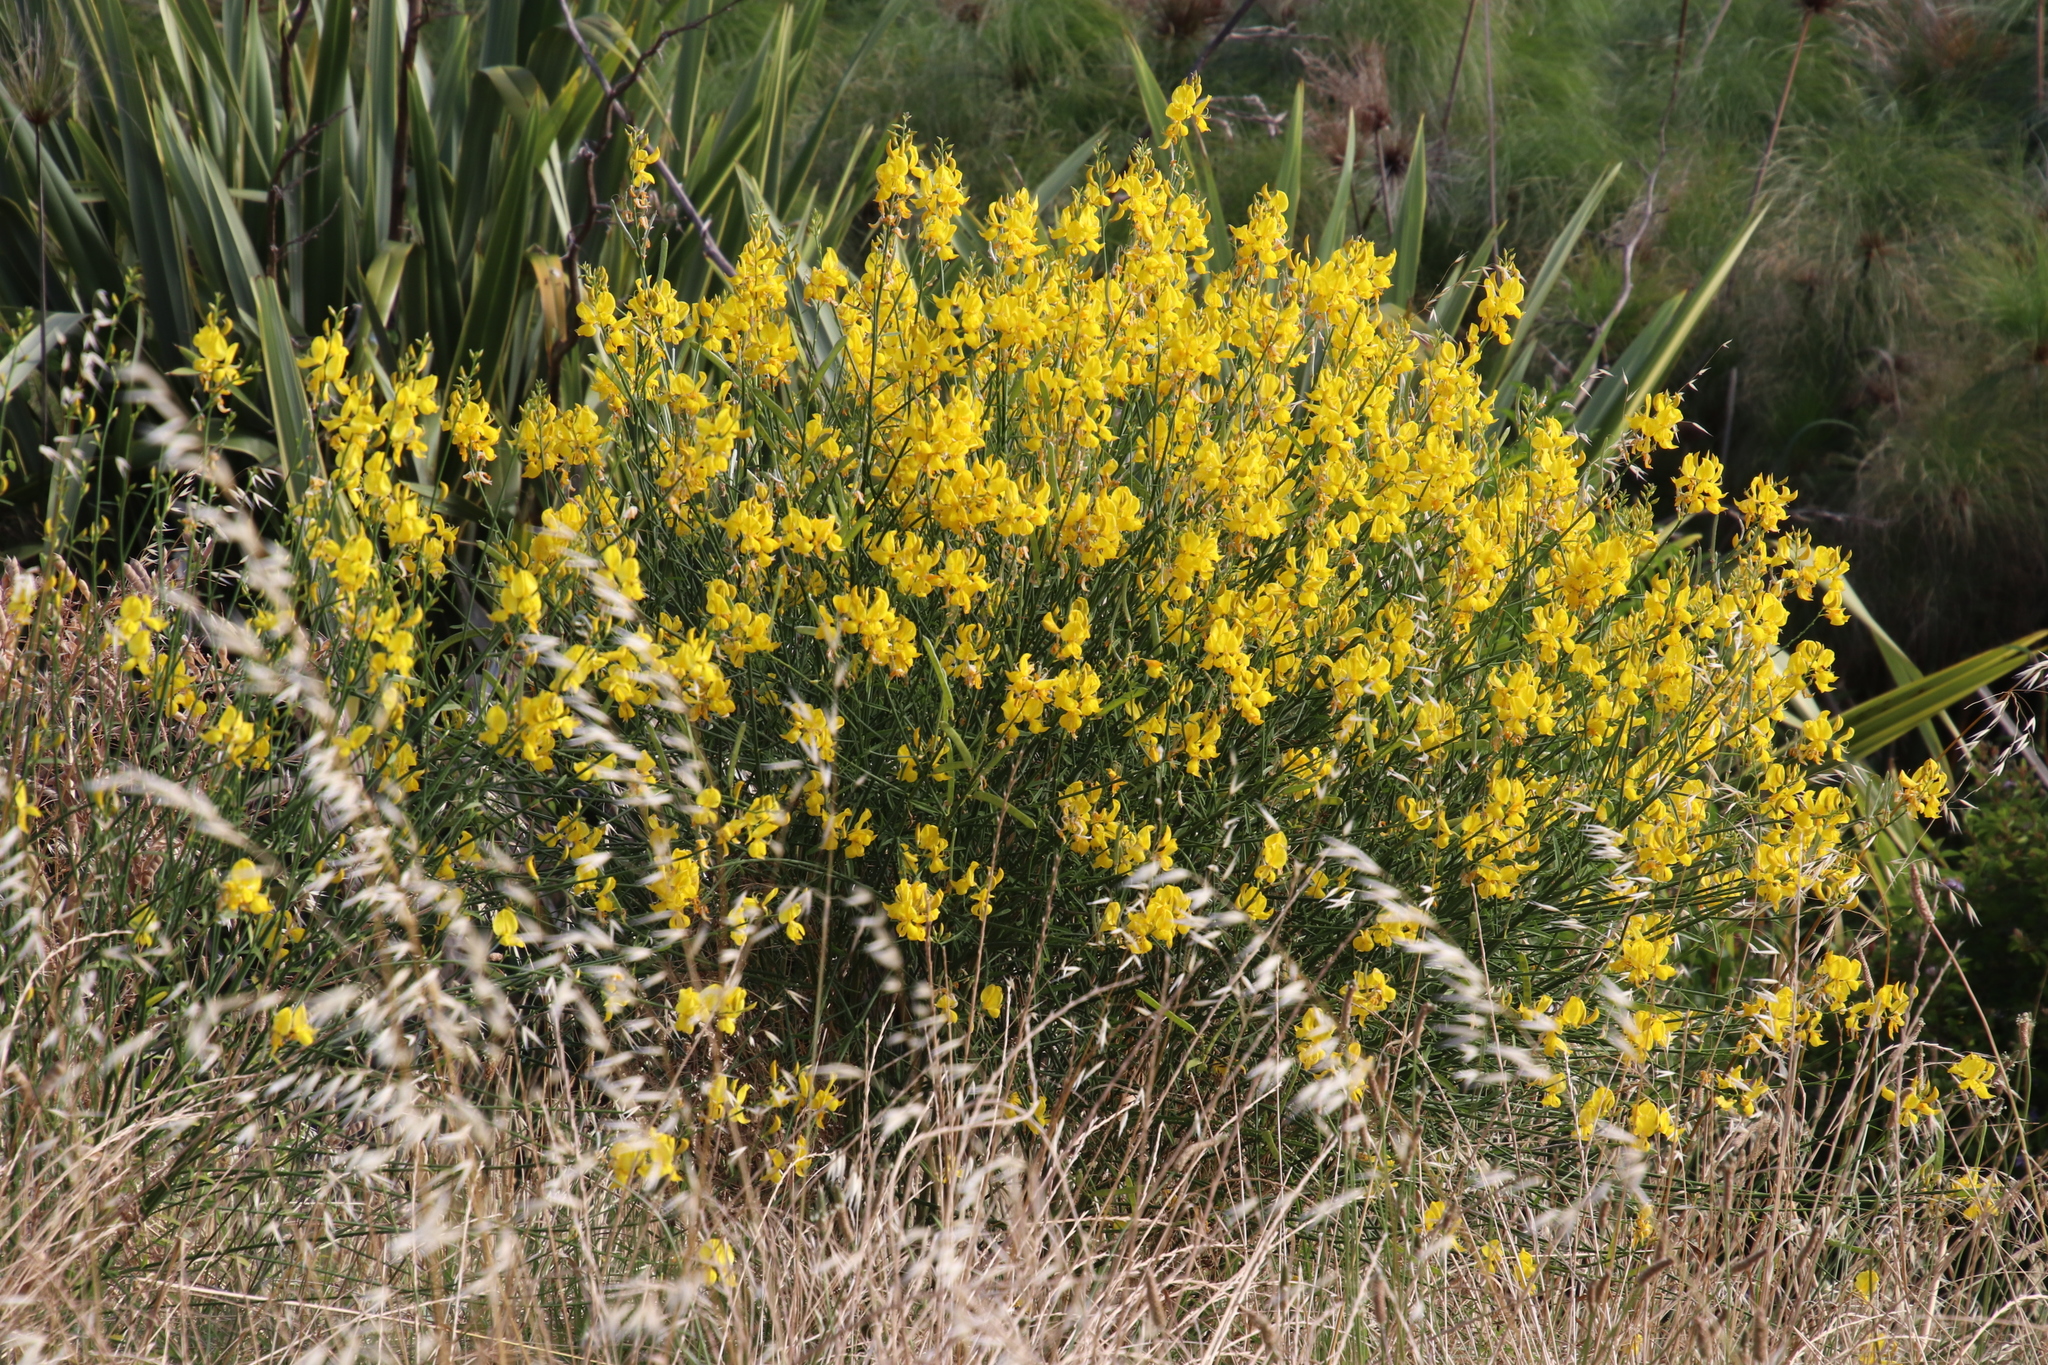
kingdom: Plantae
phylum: Tracheophyta
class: Magnoliopsida
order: Fabales
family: Fabaceae
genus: Spartium
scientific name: Spartium junceum
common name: Spanish broom
